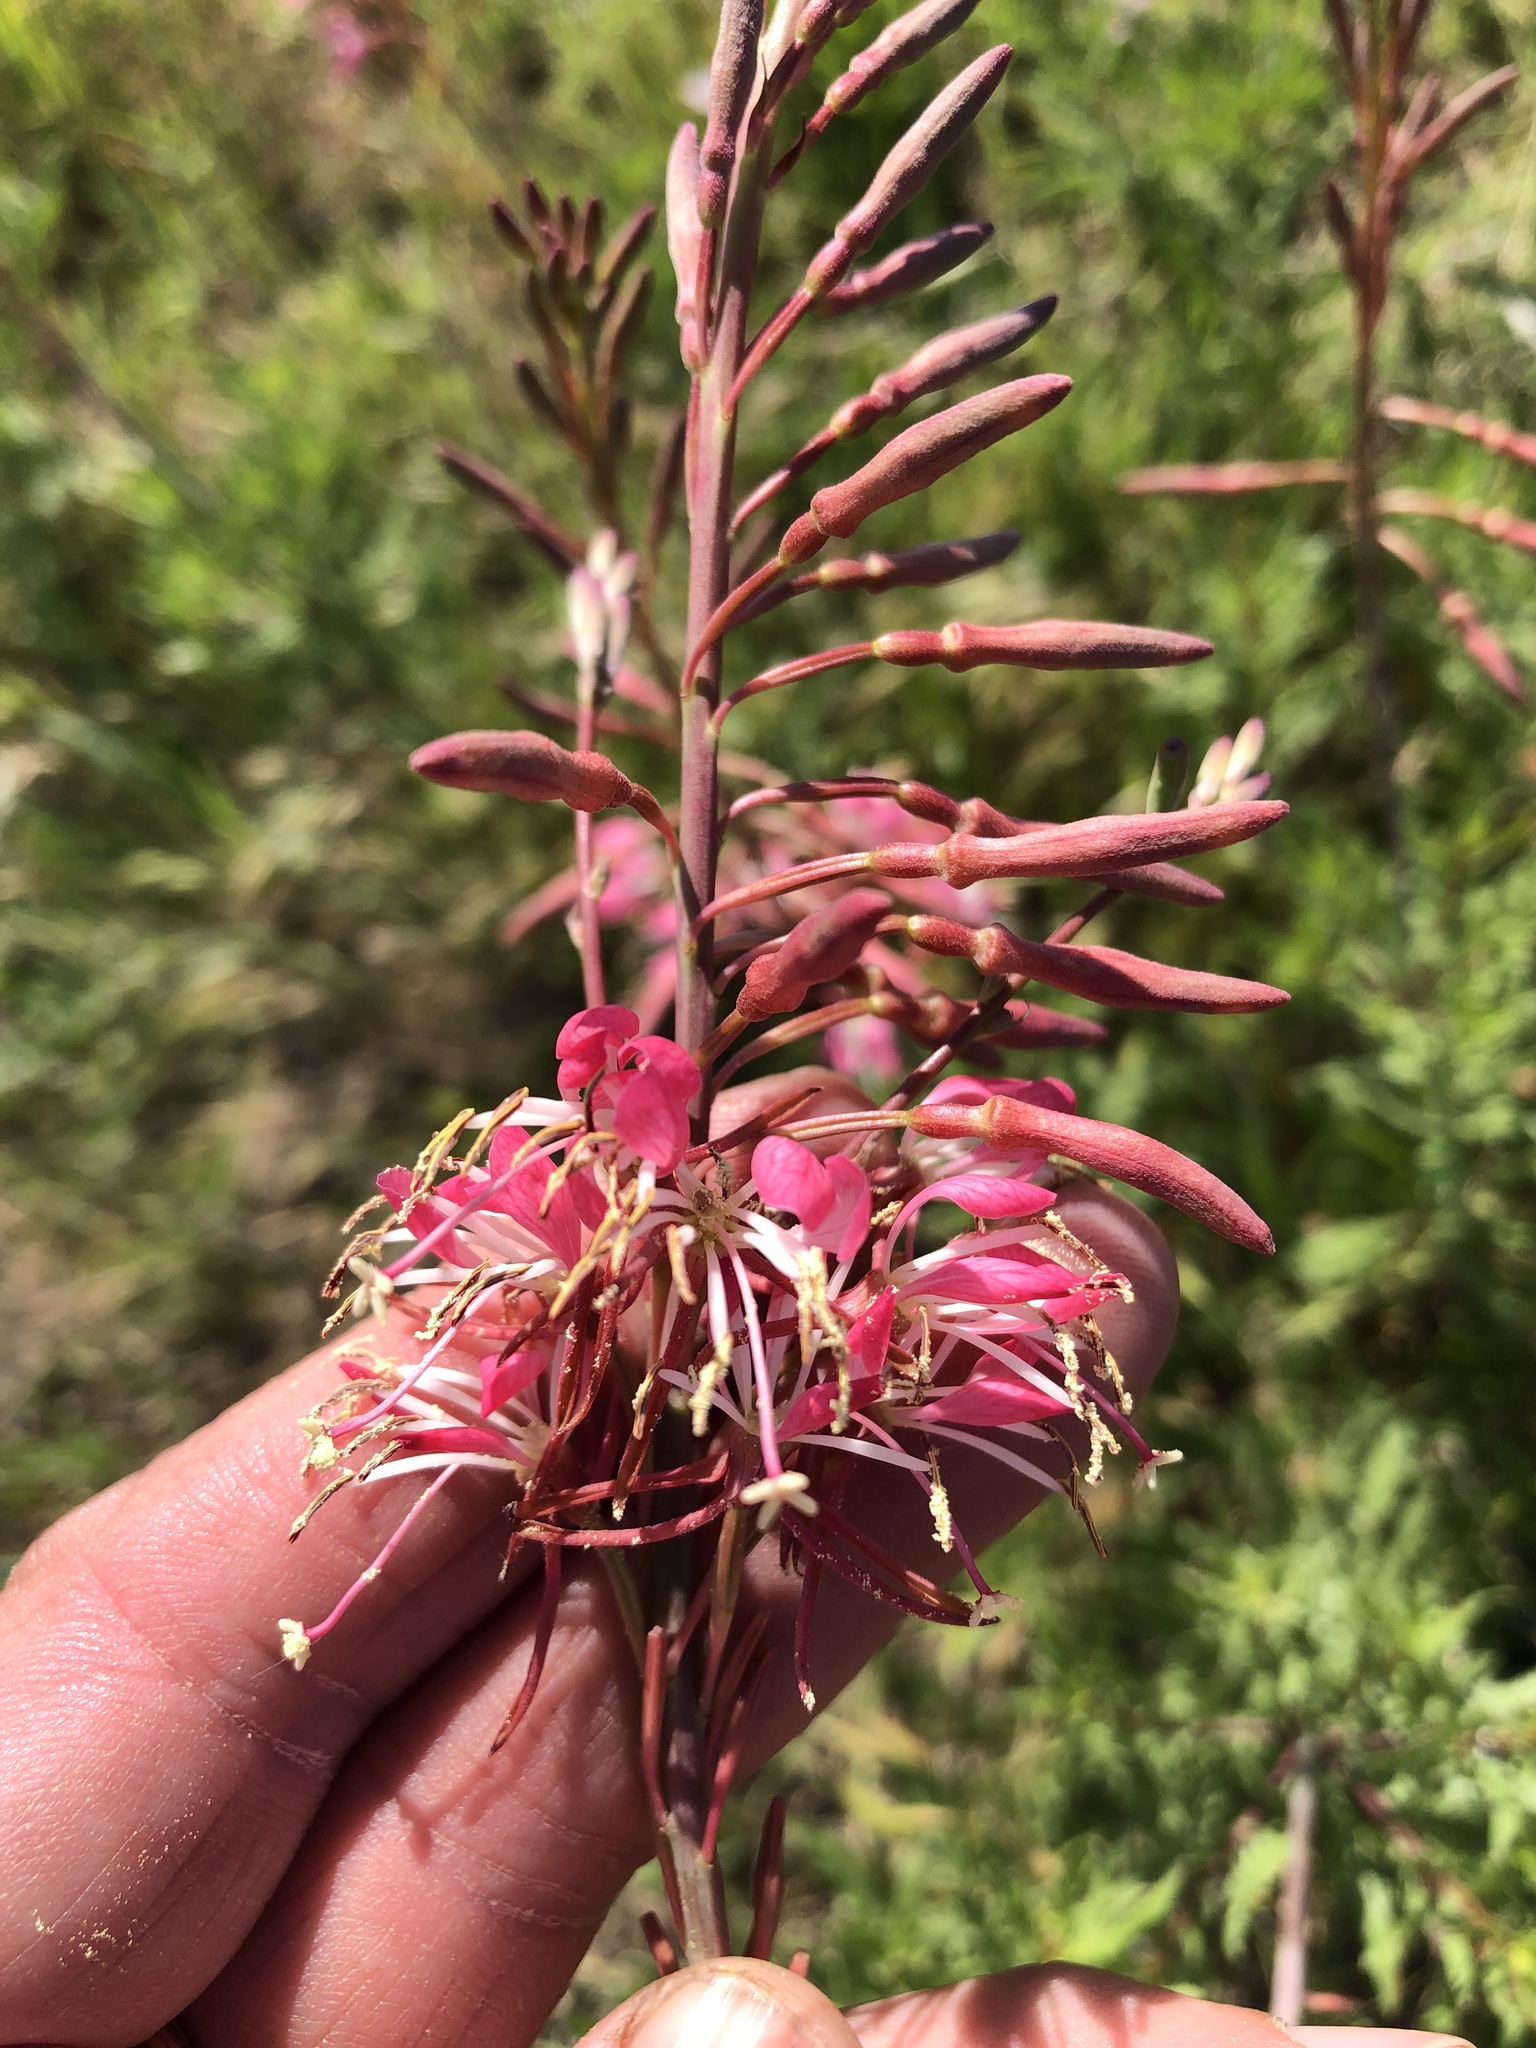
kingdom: Plantae
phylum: Tracheophyta
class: Magnoliopsida
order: Myrtales
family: Onagraceae
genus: Oenothera
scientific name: Oenothera calcicola
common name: Texas beeblossom
